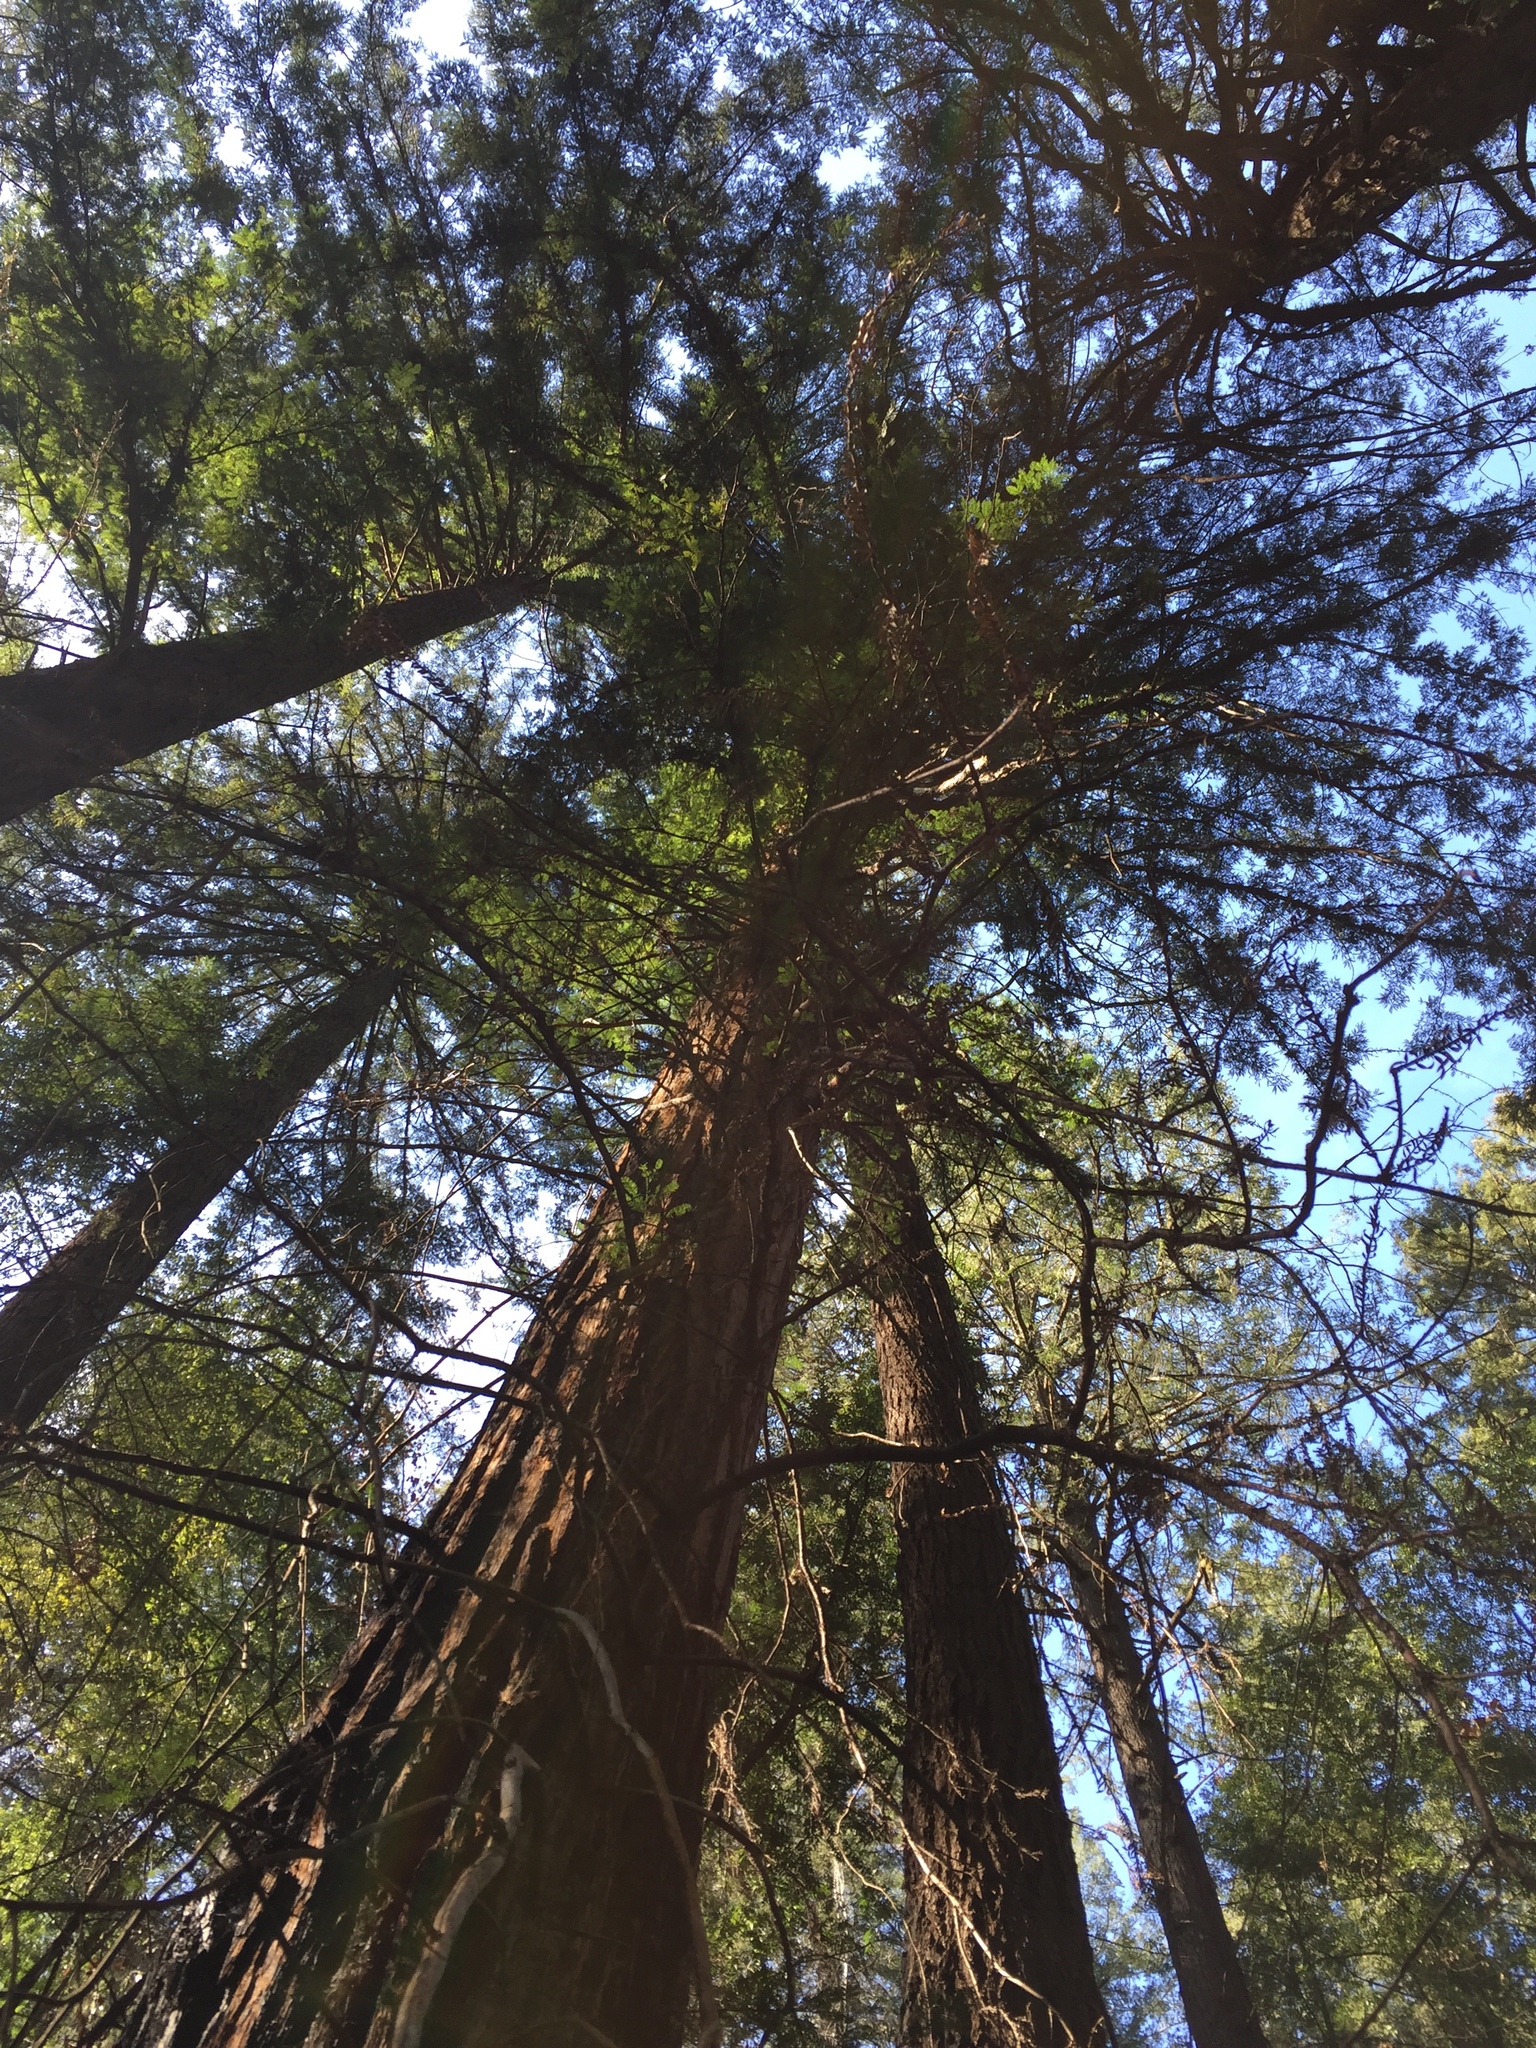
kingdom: Plantae
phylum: Tracheophyta
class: Pinopsida
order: Pinales
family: Cupressaceae
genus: Sequoia
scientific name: Sequoia sempervirens
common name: Coast redwood
